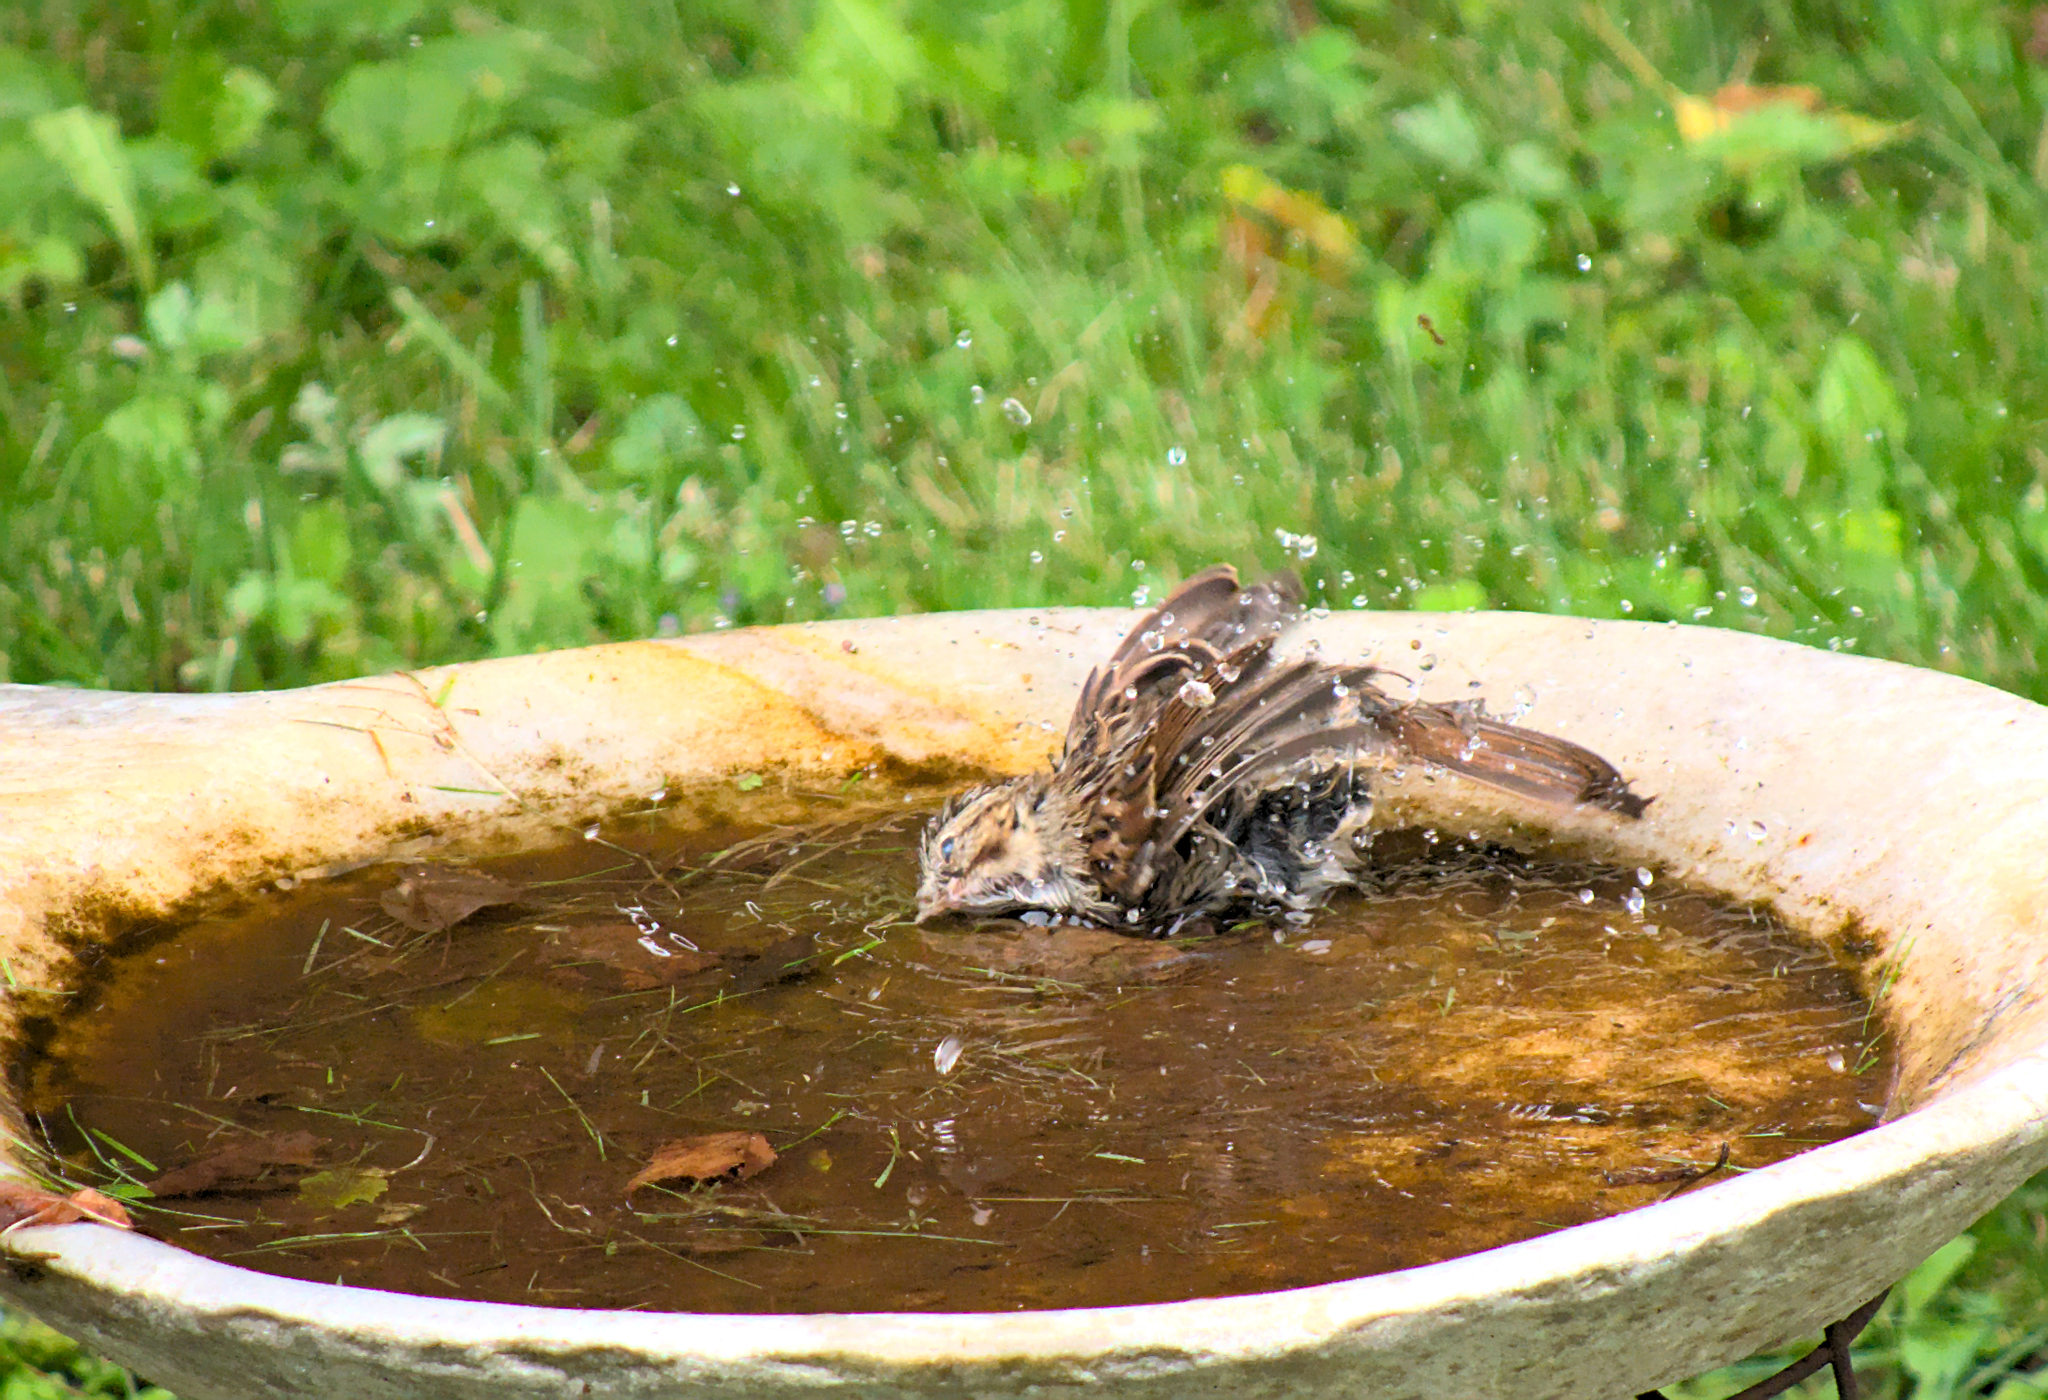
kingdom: Animalia
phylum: Chordata
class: Aves
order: Passeriformes
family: Passerellidae
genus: Melospiza
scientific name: Melospiza melodia
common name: Song sparrow
